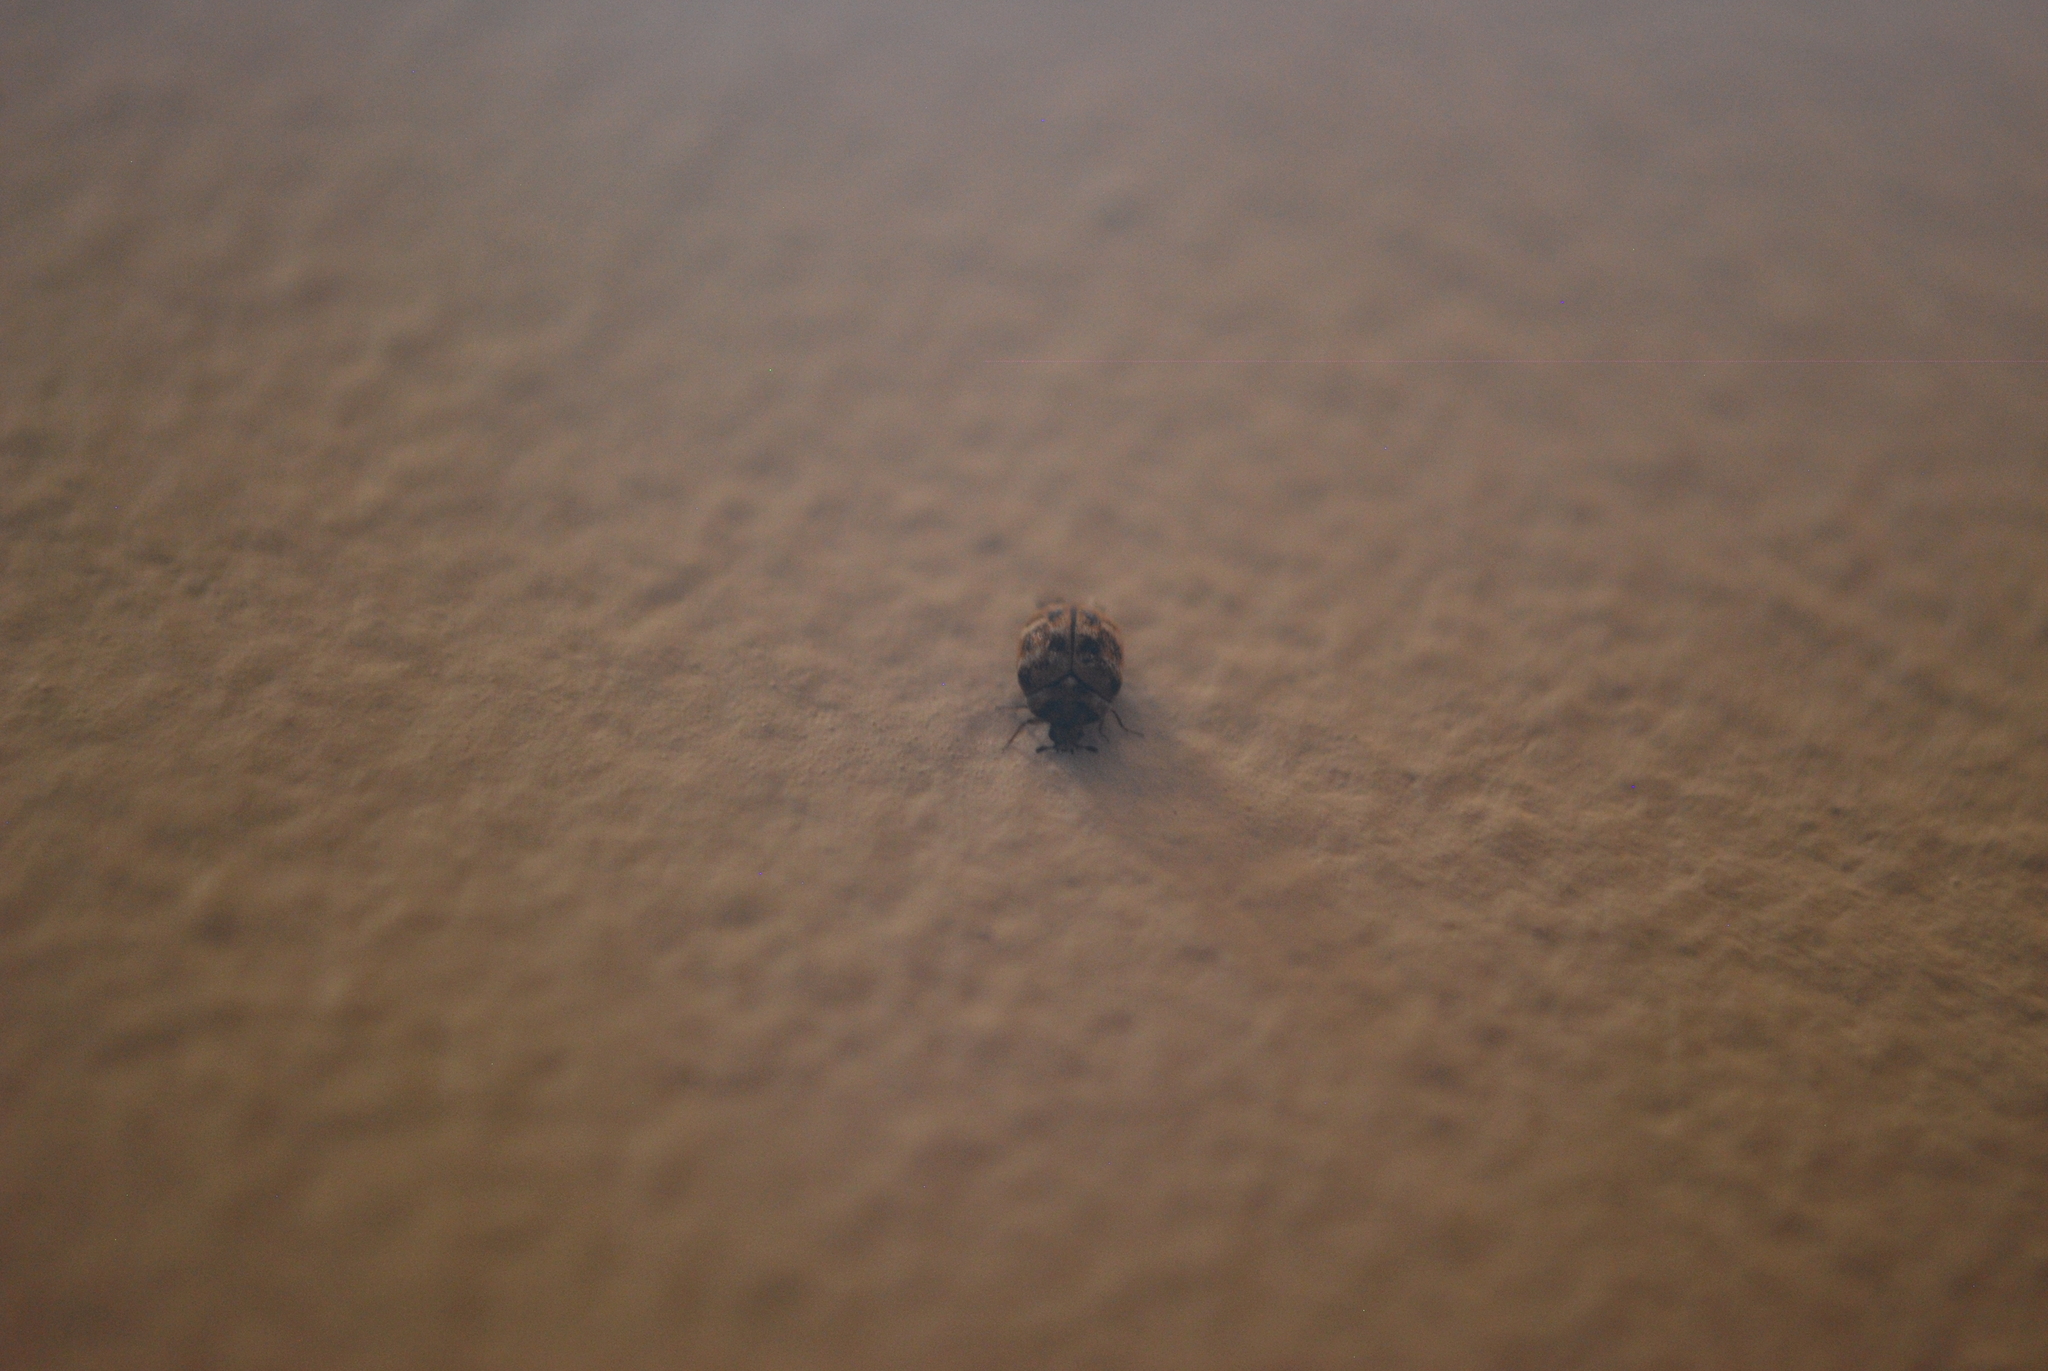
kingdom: Animalia
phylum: Arthropoda
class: Insecta
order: Coleoptera
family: Dermestidae
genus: Anthrenus
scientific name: Anthrenus verbasci
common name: Varied carpet beetle
